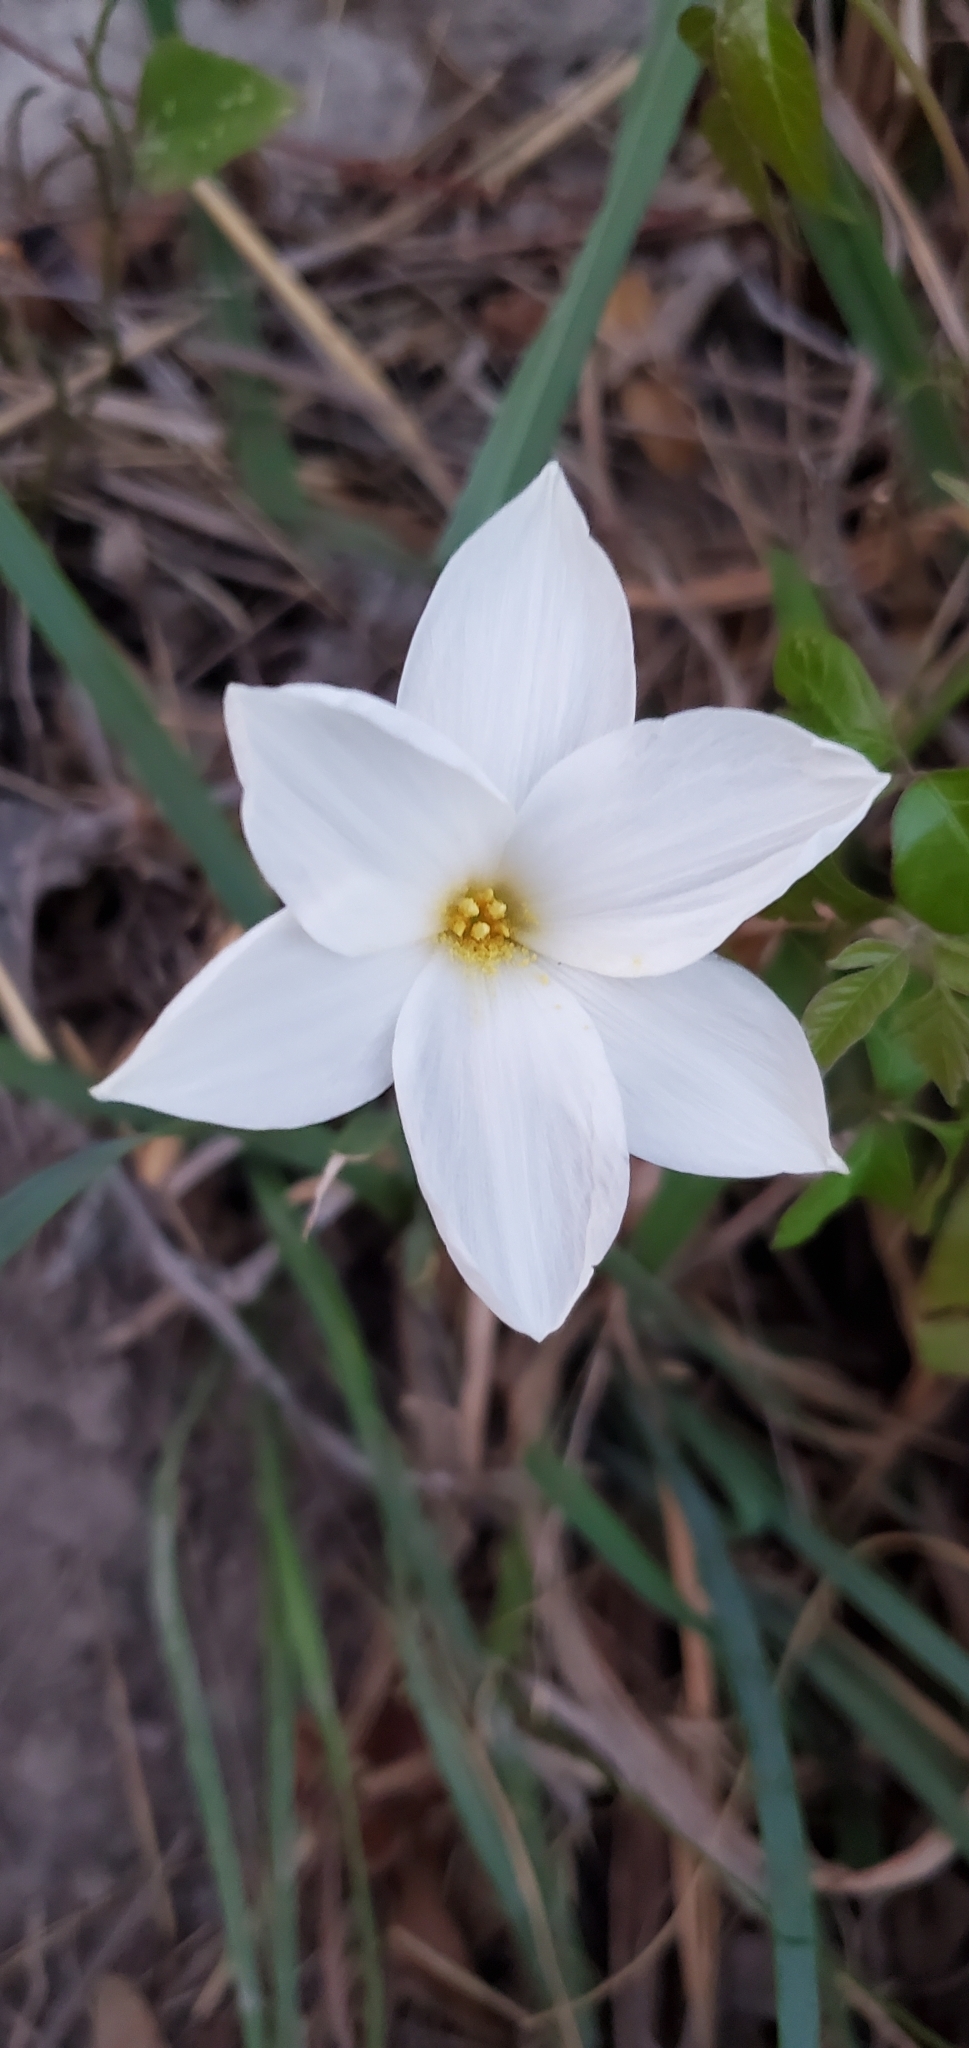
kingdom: Plantae
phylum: Tracheophyta
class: Liliopsida
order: Asparagales
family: Amaryllidaceae
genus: Zephyranthes
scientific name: Zephyranthes drummondii
